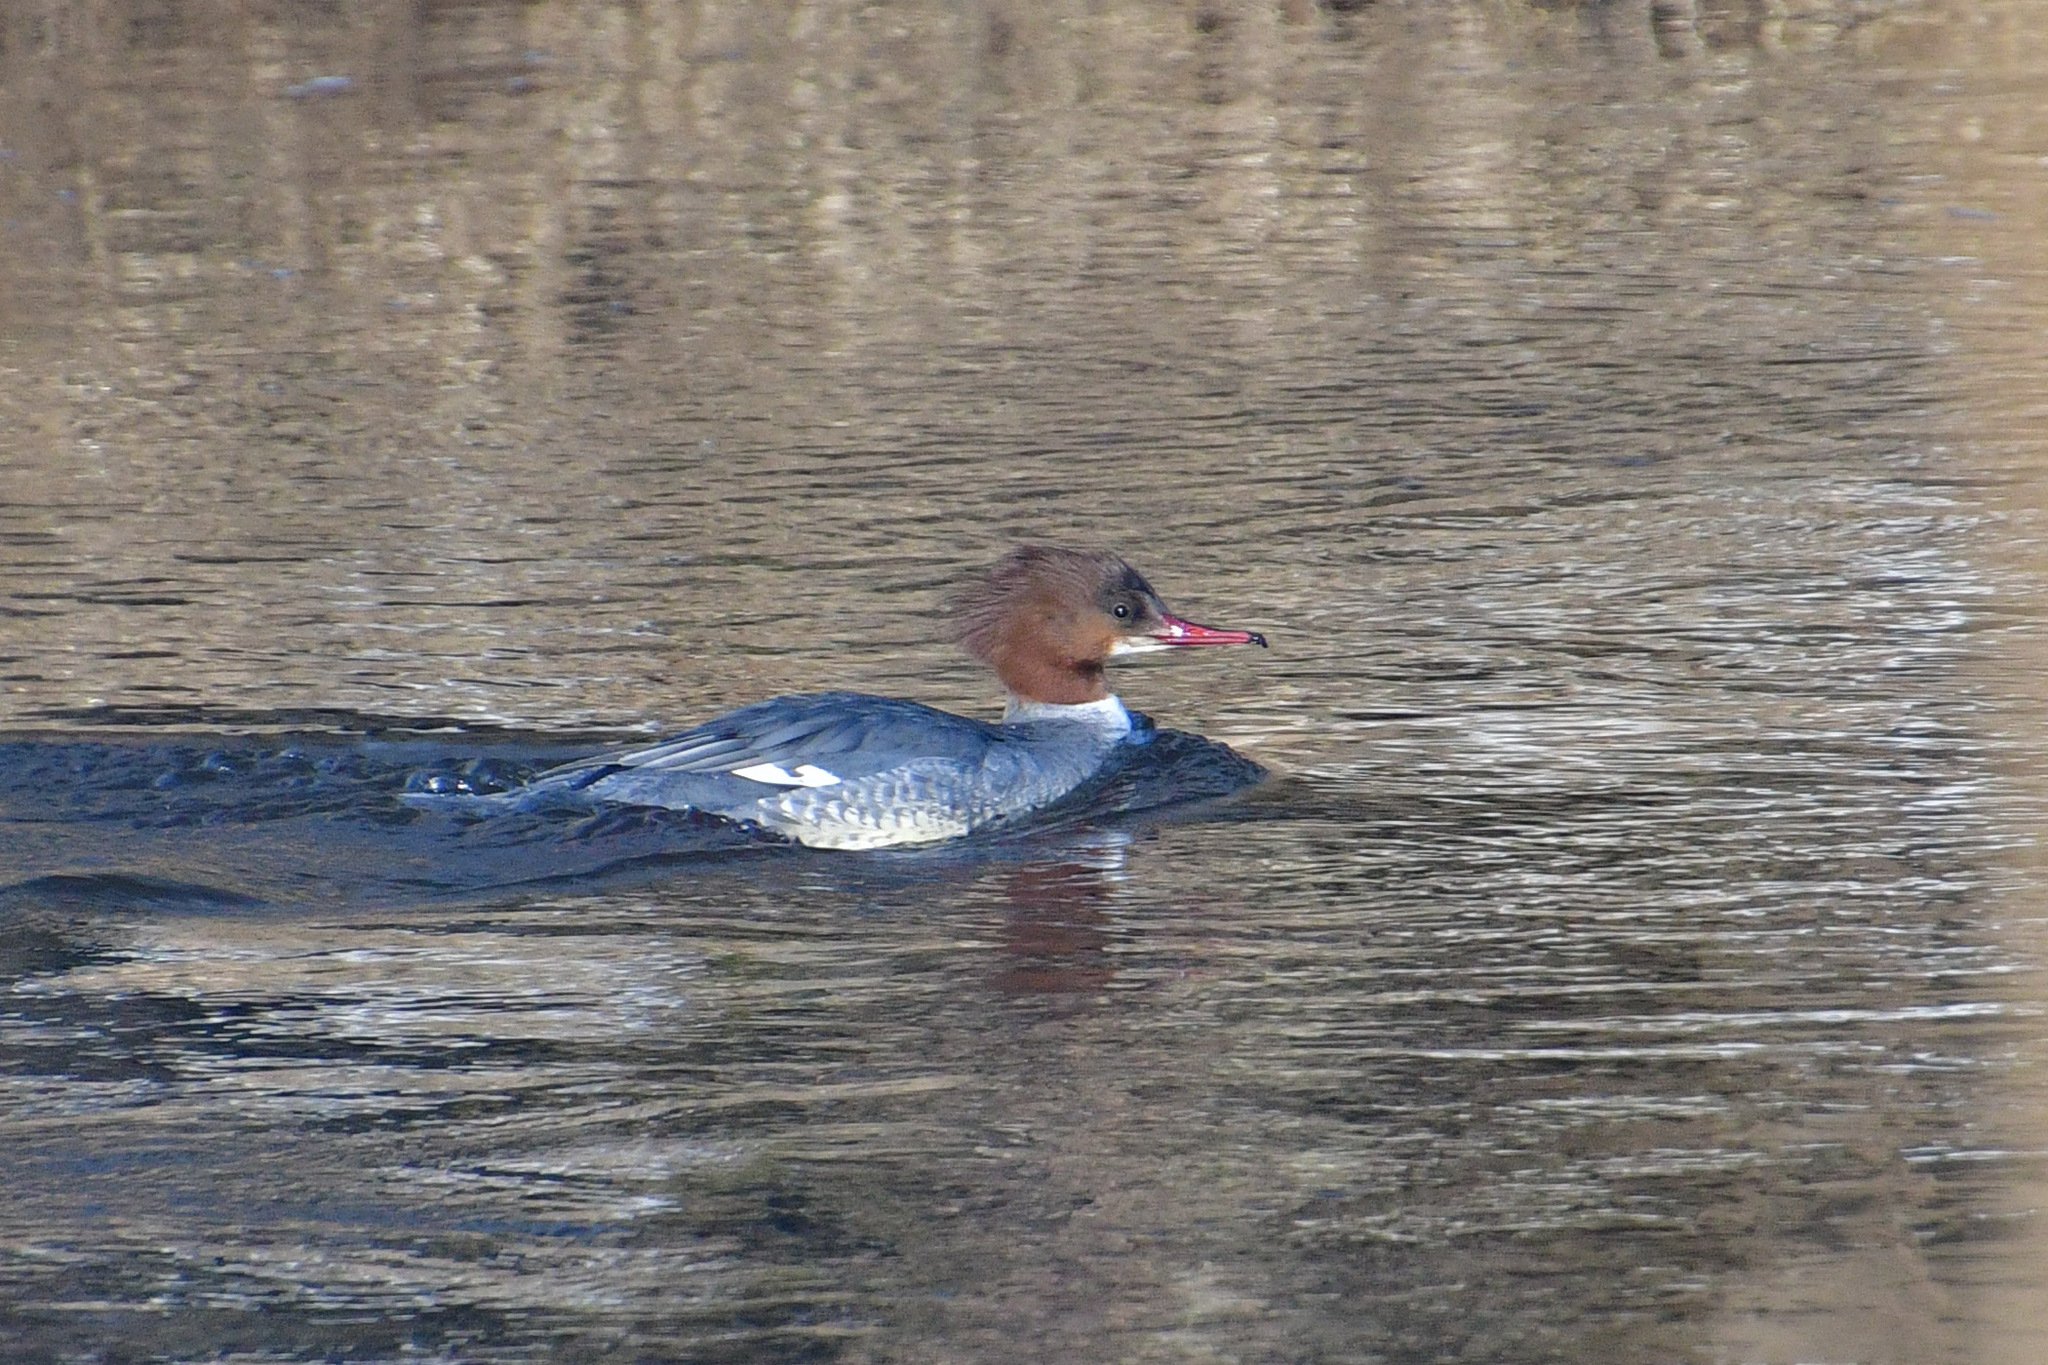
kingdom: Animalia
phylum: Chordata
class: Aves
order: Anseriformes
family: Anatidae
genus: Mergus
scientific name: Mergus merganser
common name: Common merganser
